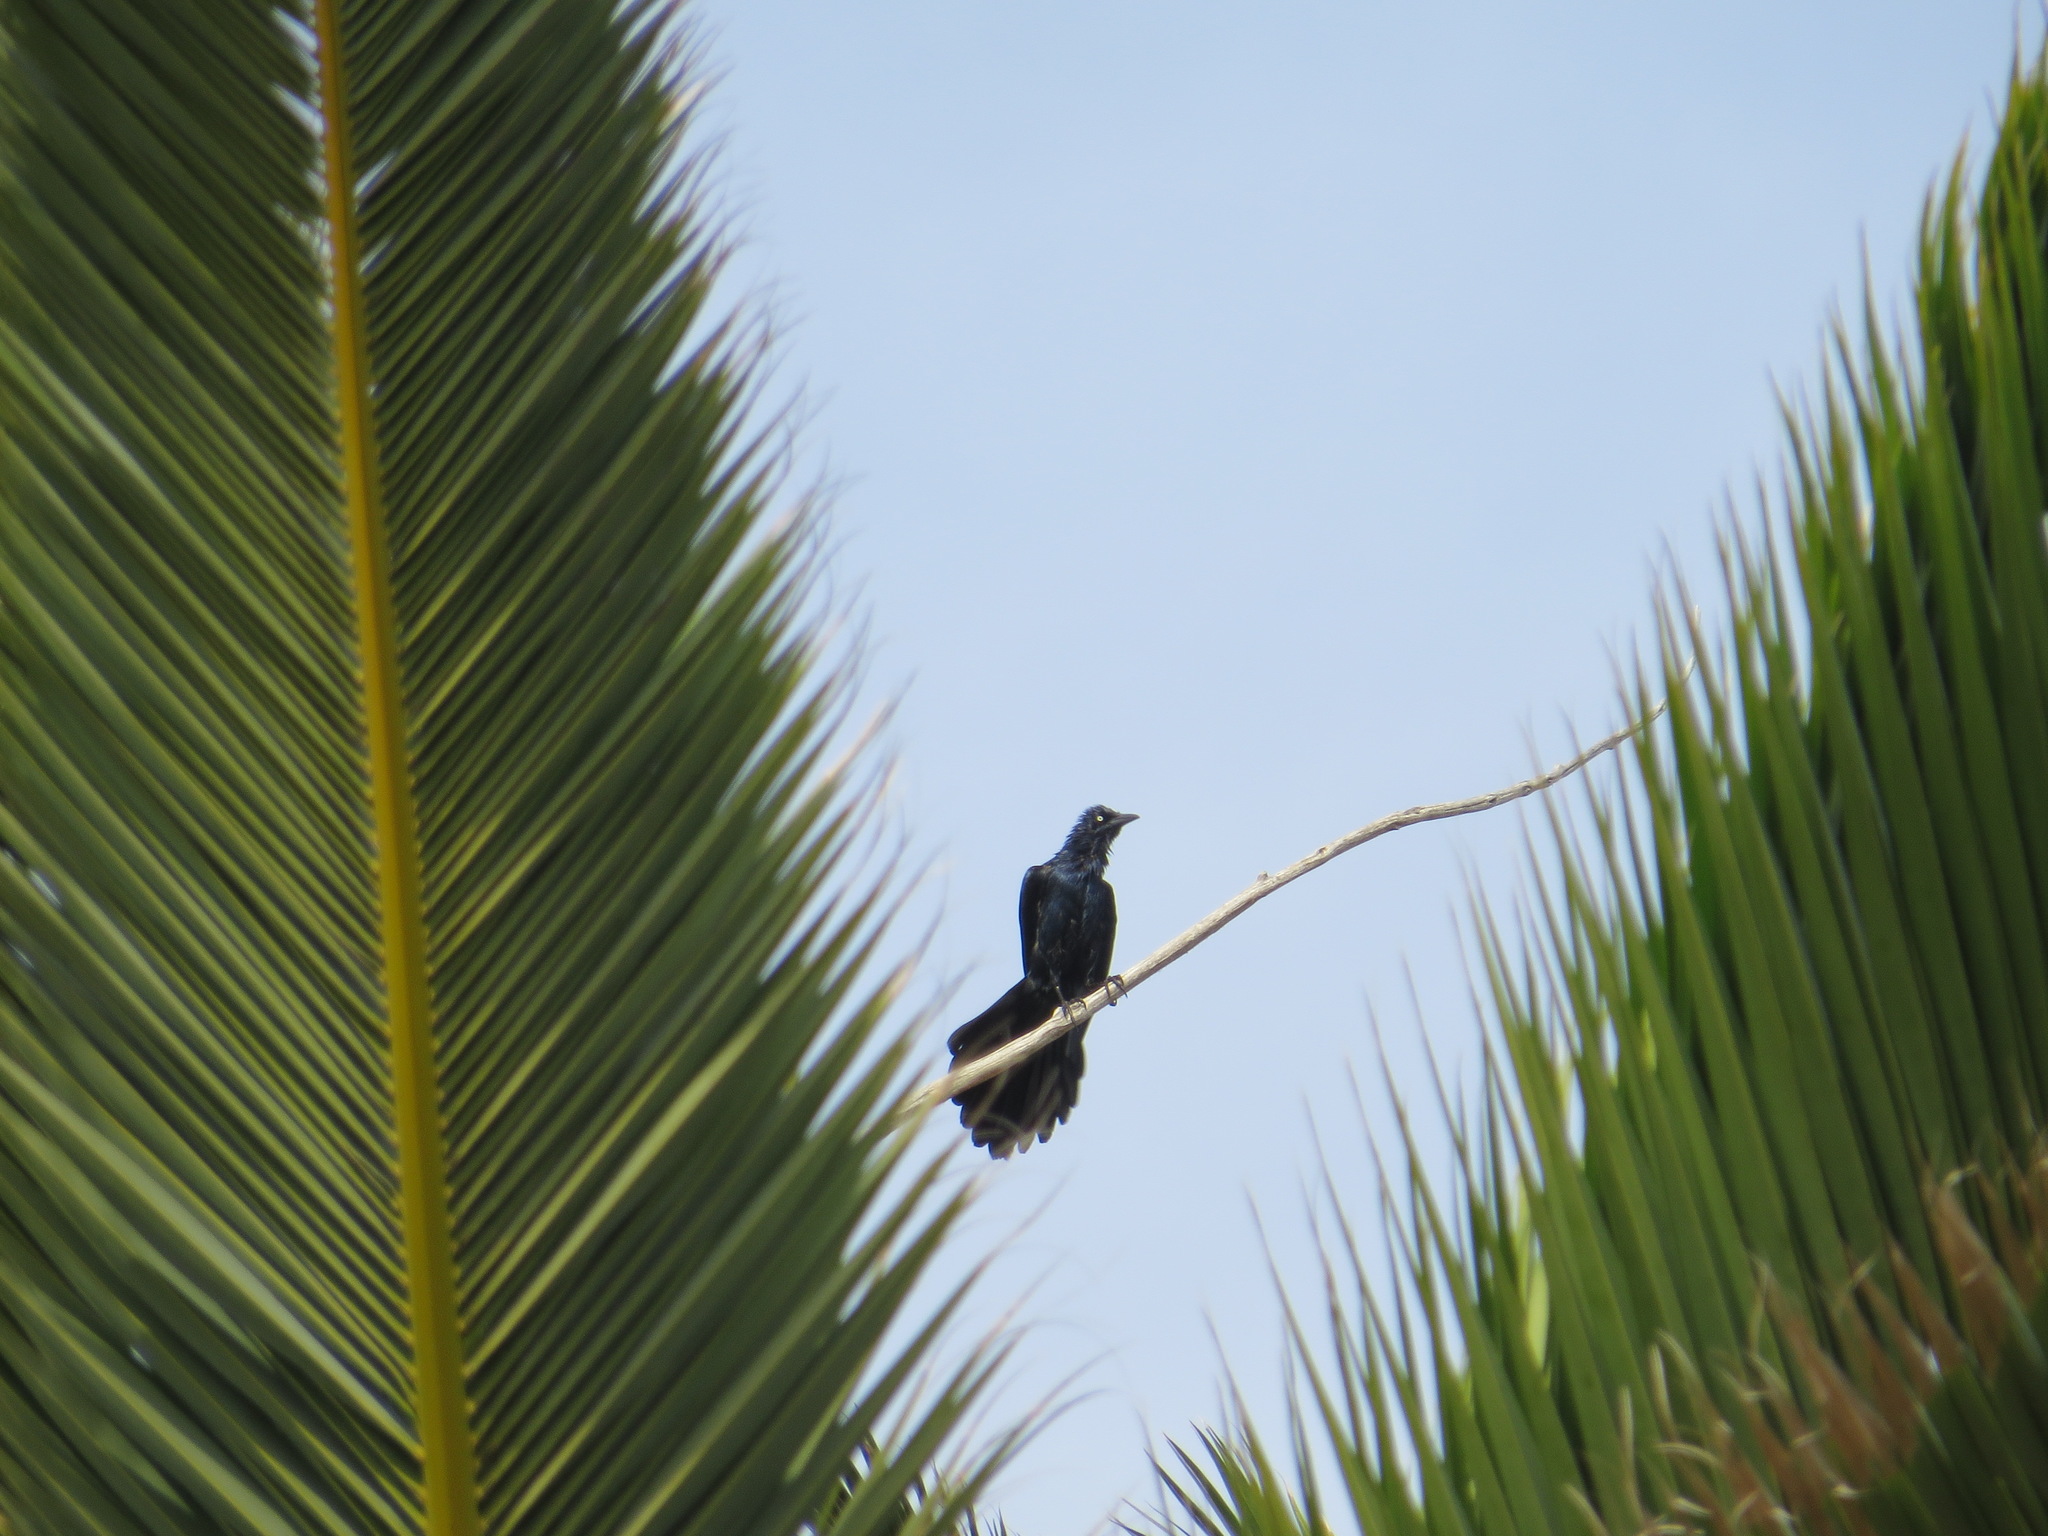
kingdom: Animalia
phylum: Chordata
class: Aves
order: Passeriformes
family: Icteridae
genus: Quiscalus
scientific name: Quiscalus mexicanus
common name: Great-tailed grackle
